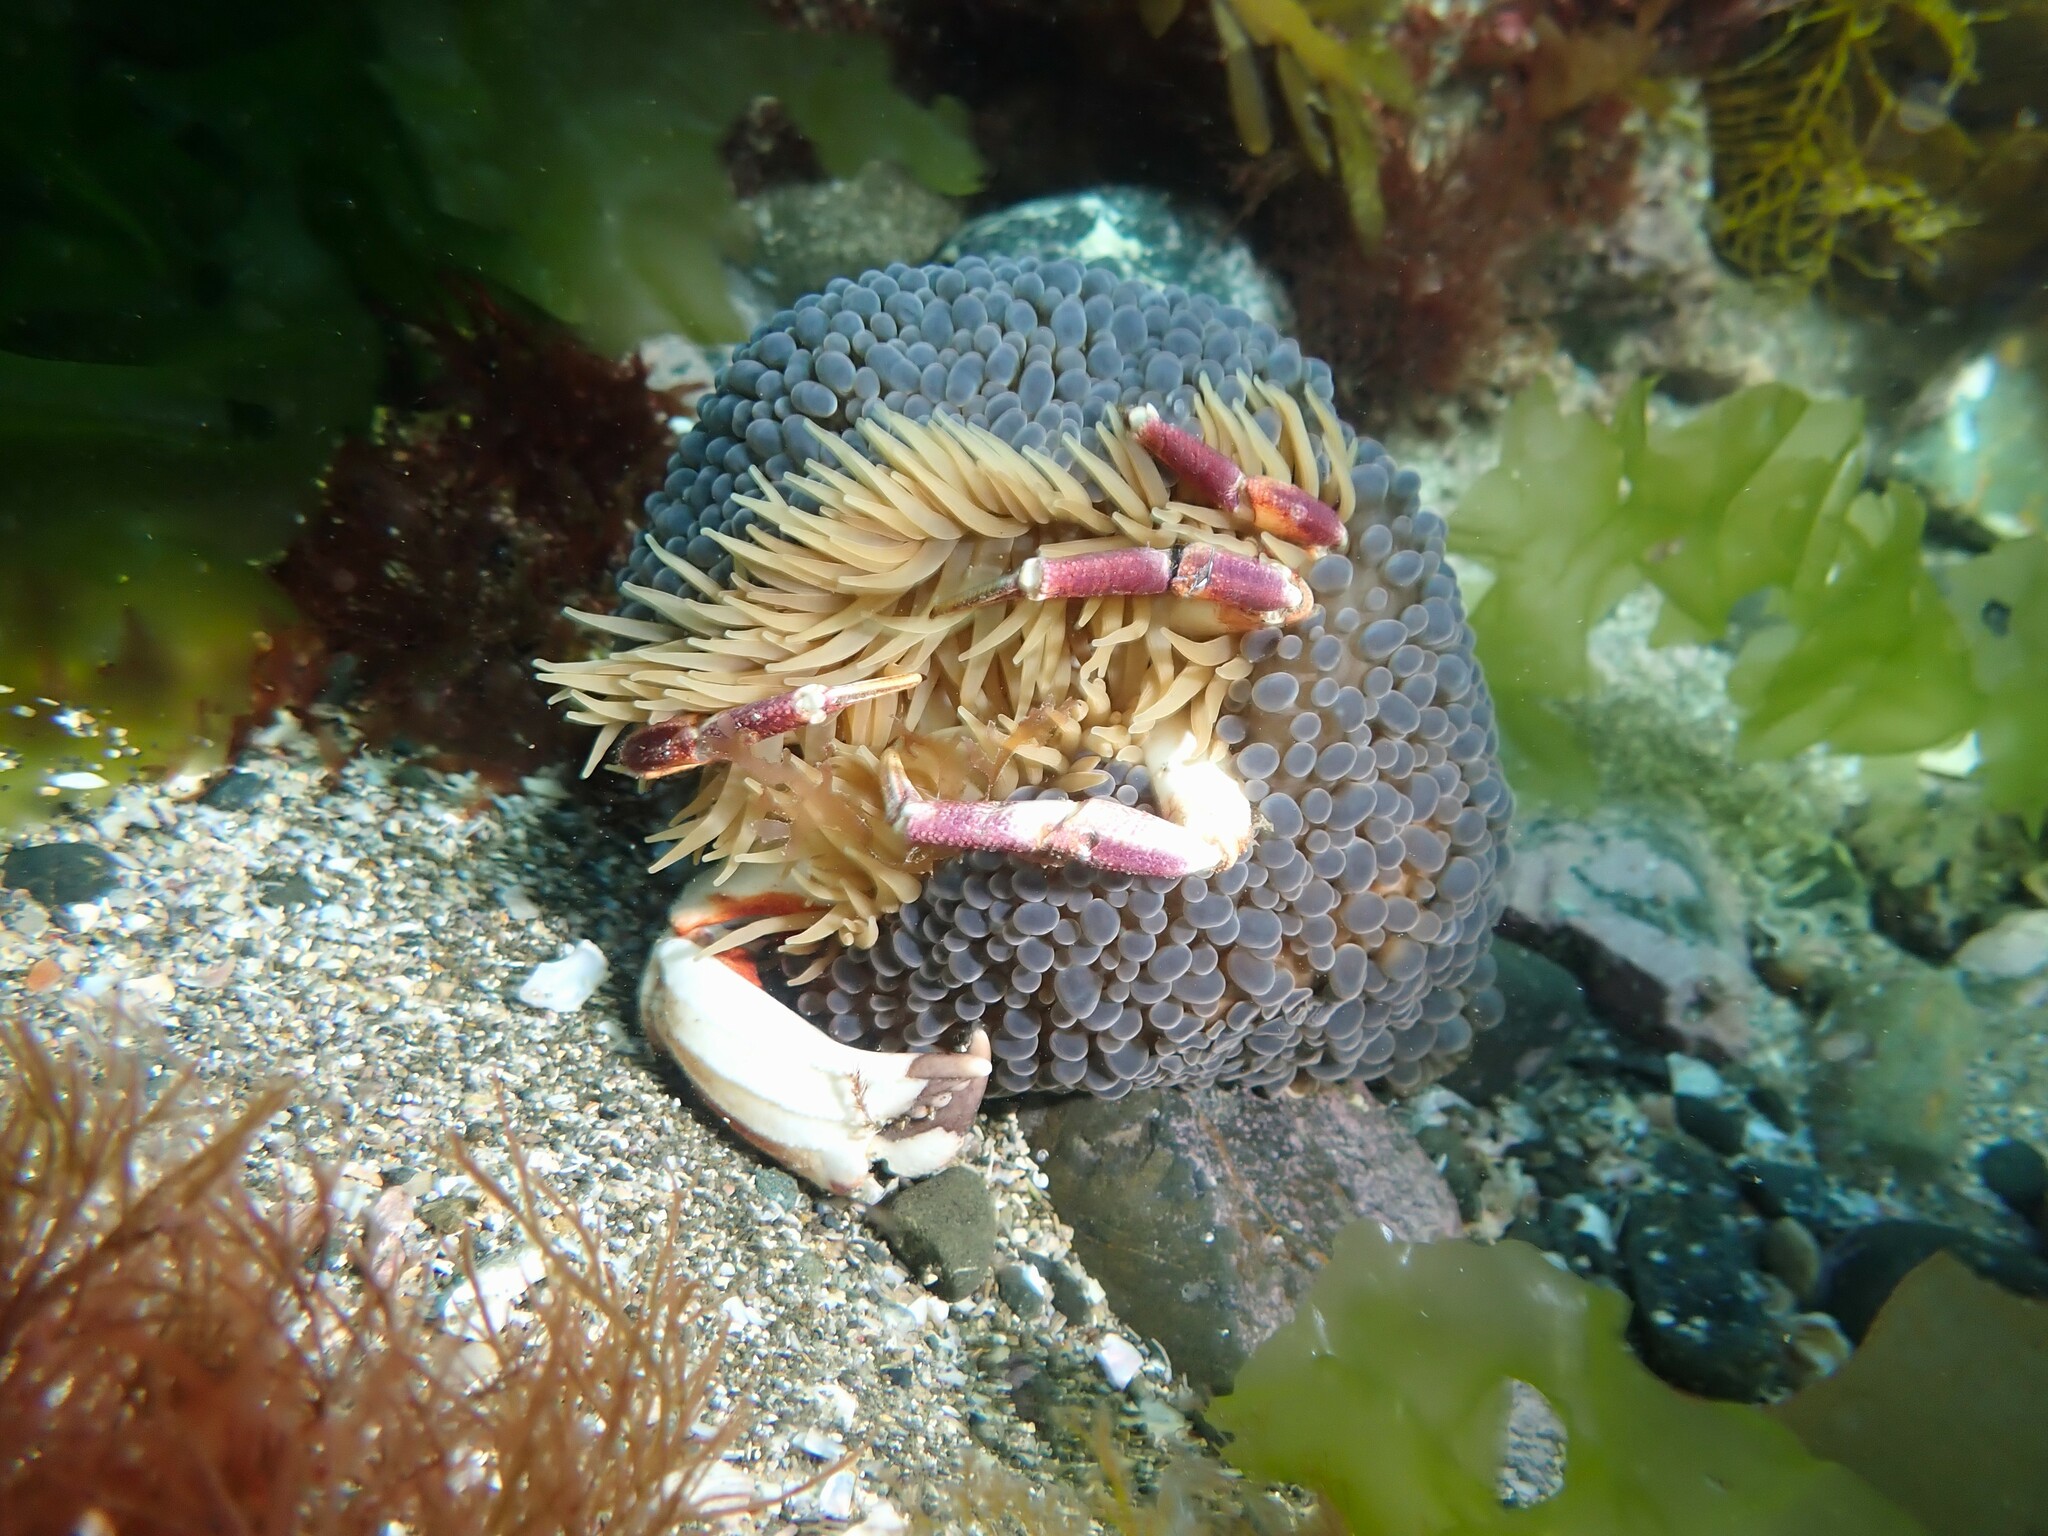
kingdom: Animalia
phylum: Cnidaria
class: Anthozoa
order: Actiniaria
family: Actiniidae
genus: Phlyctenactis
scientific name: Phlyctenactis tuberculosa
